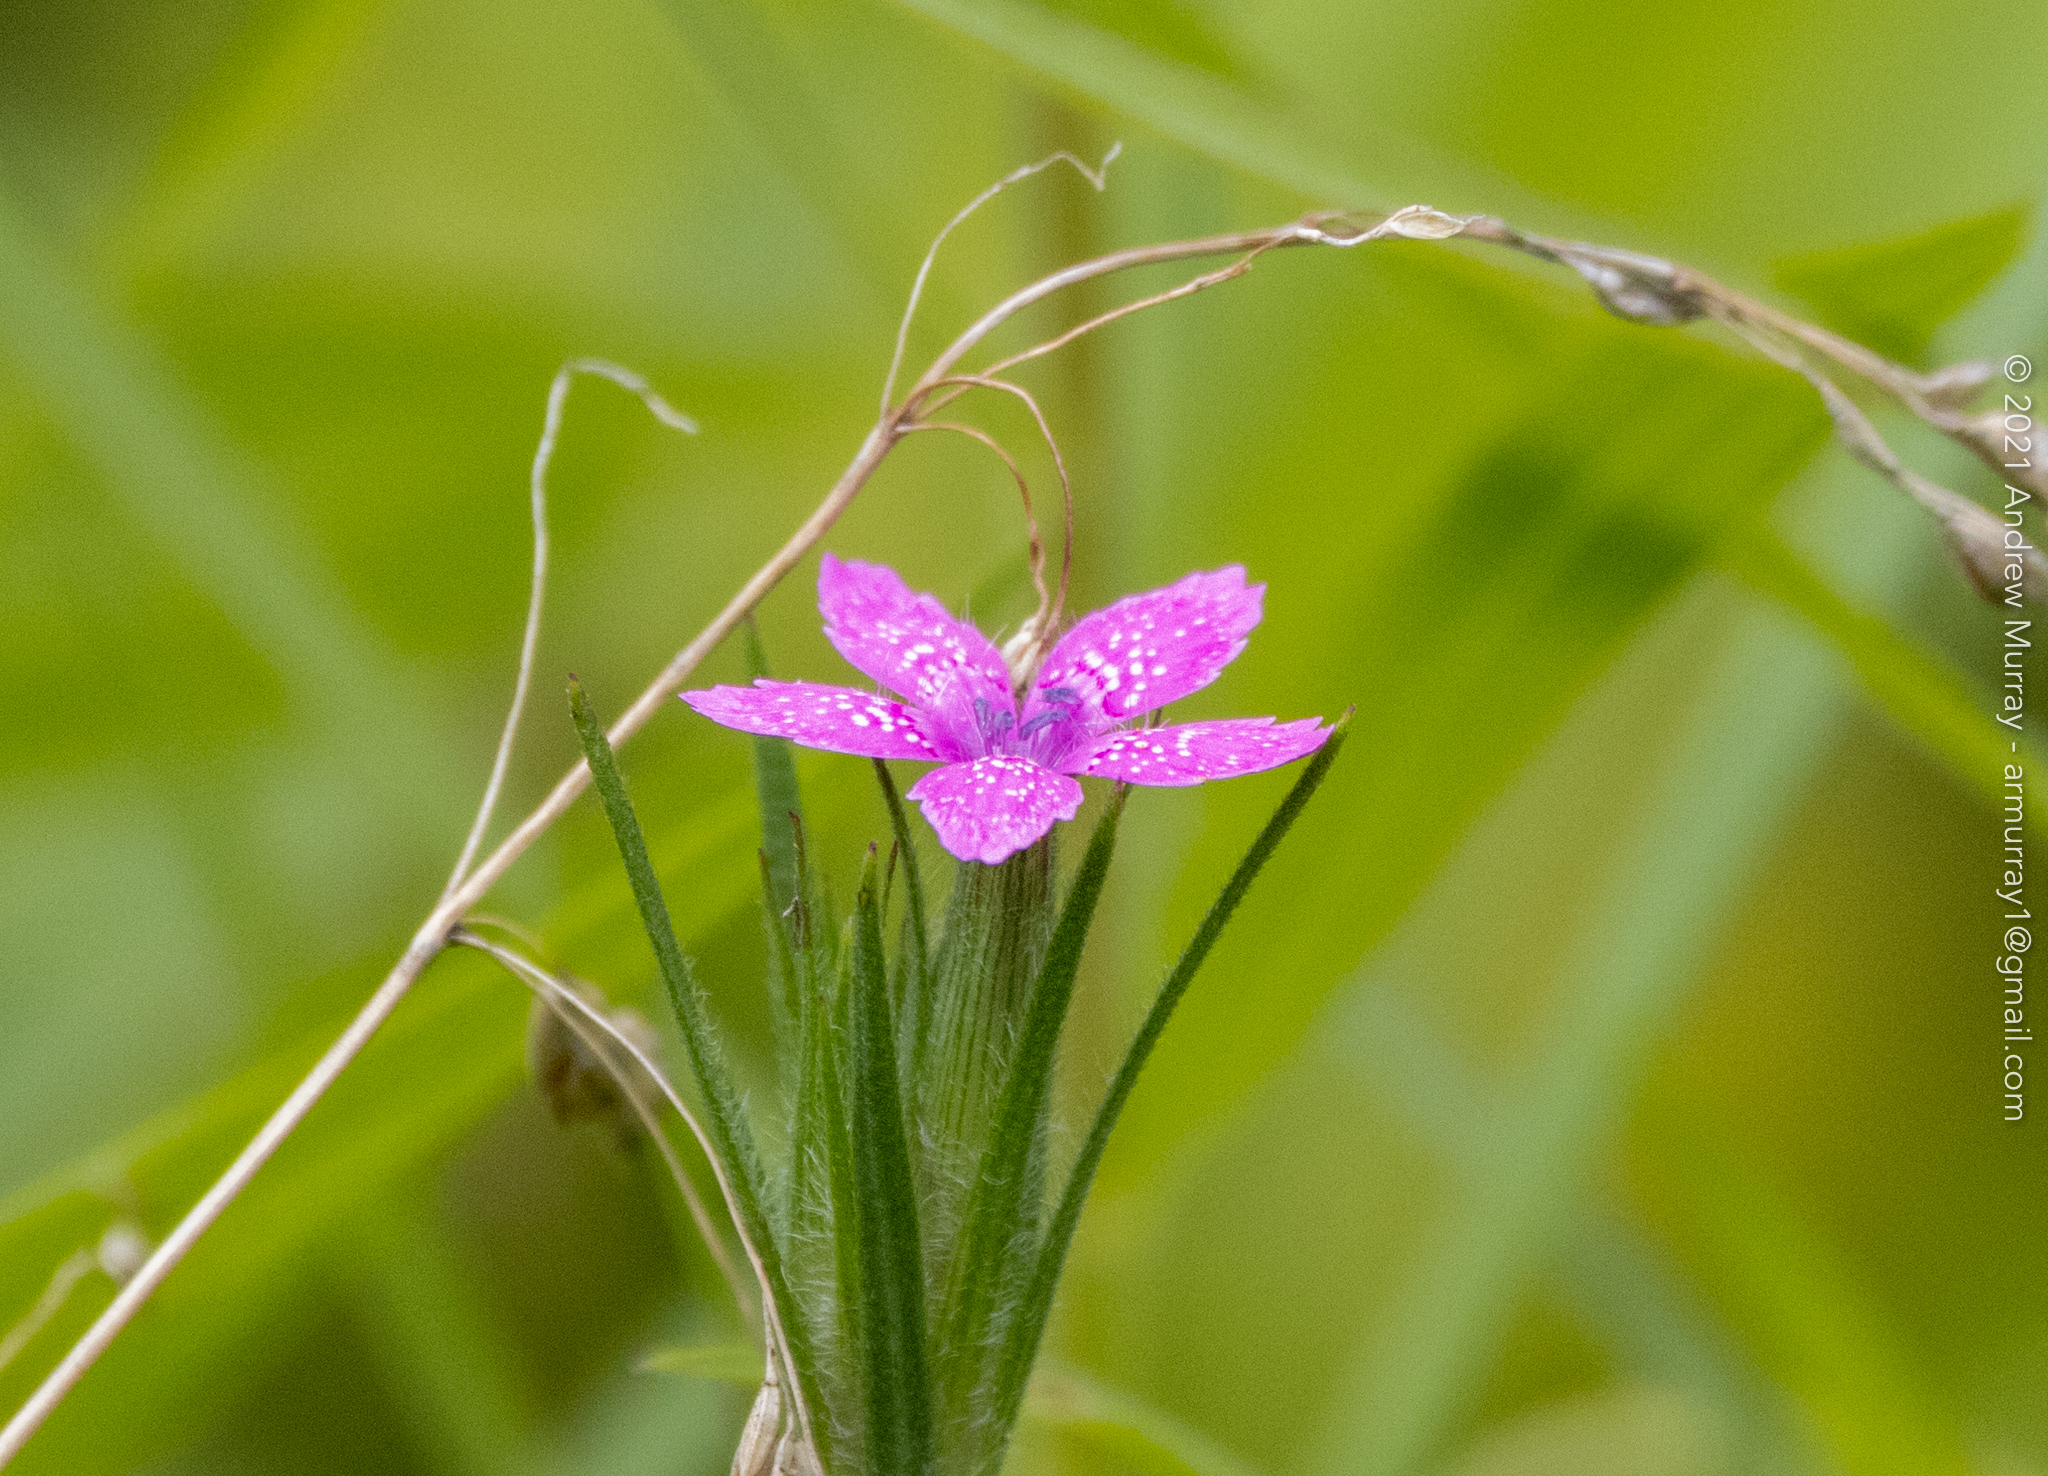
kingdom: Plantae
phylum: Tracheophyta
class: Magnoliopsida
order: Caryophyllales
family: Caryophyllaceae
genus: Dianthus
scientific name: Dianthus armeria
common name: Deptford pink
